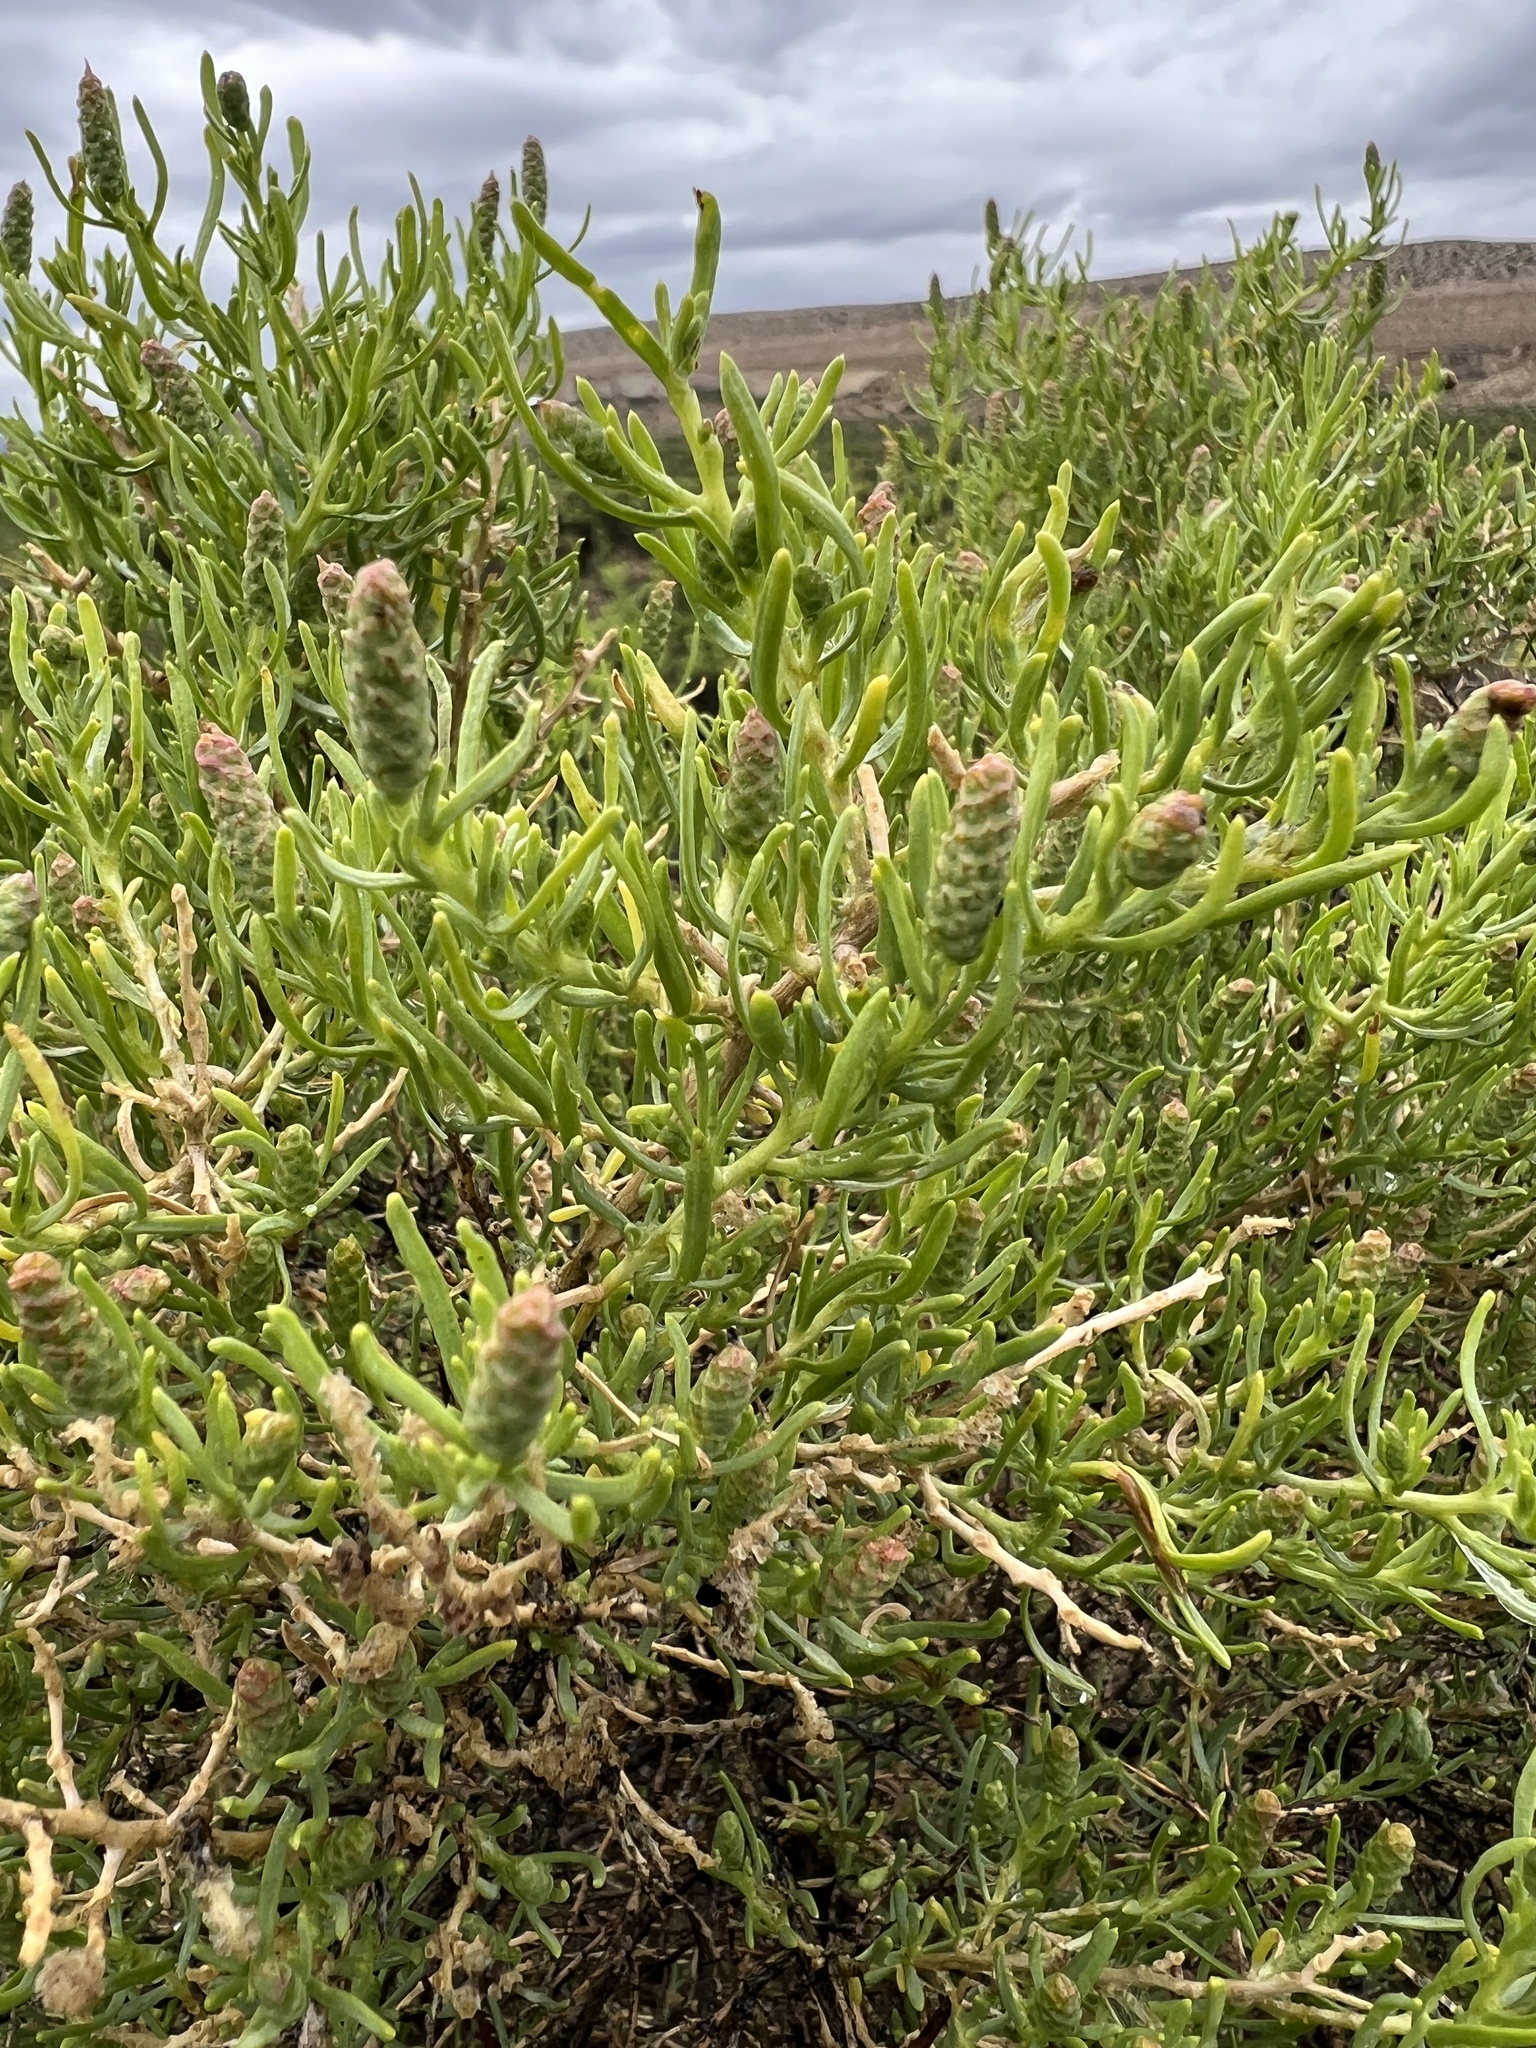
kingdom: Plantae
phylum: Tracheophyta
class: Magnoliopsida
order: Caryophyllales
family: Sarcobataceae
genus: Sarcobatus
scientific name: Sarcobatus vermiculatus
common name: Greasewood
